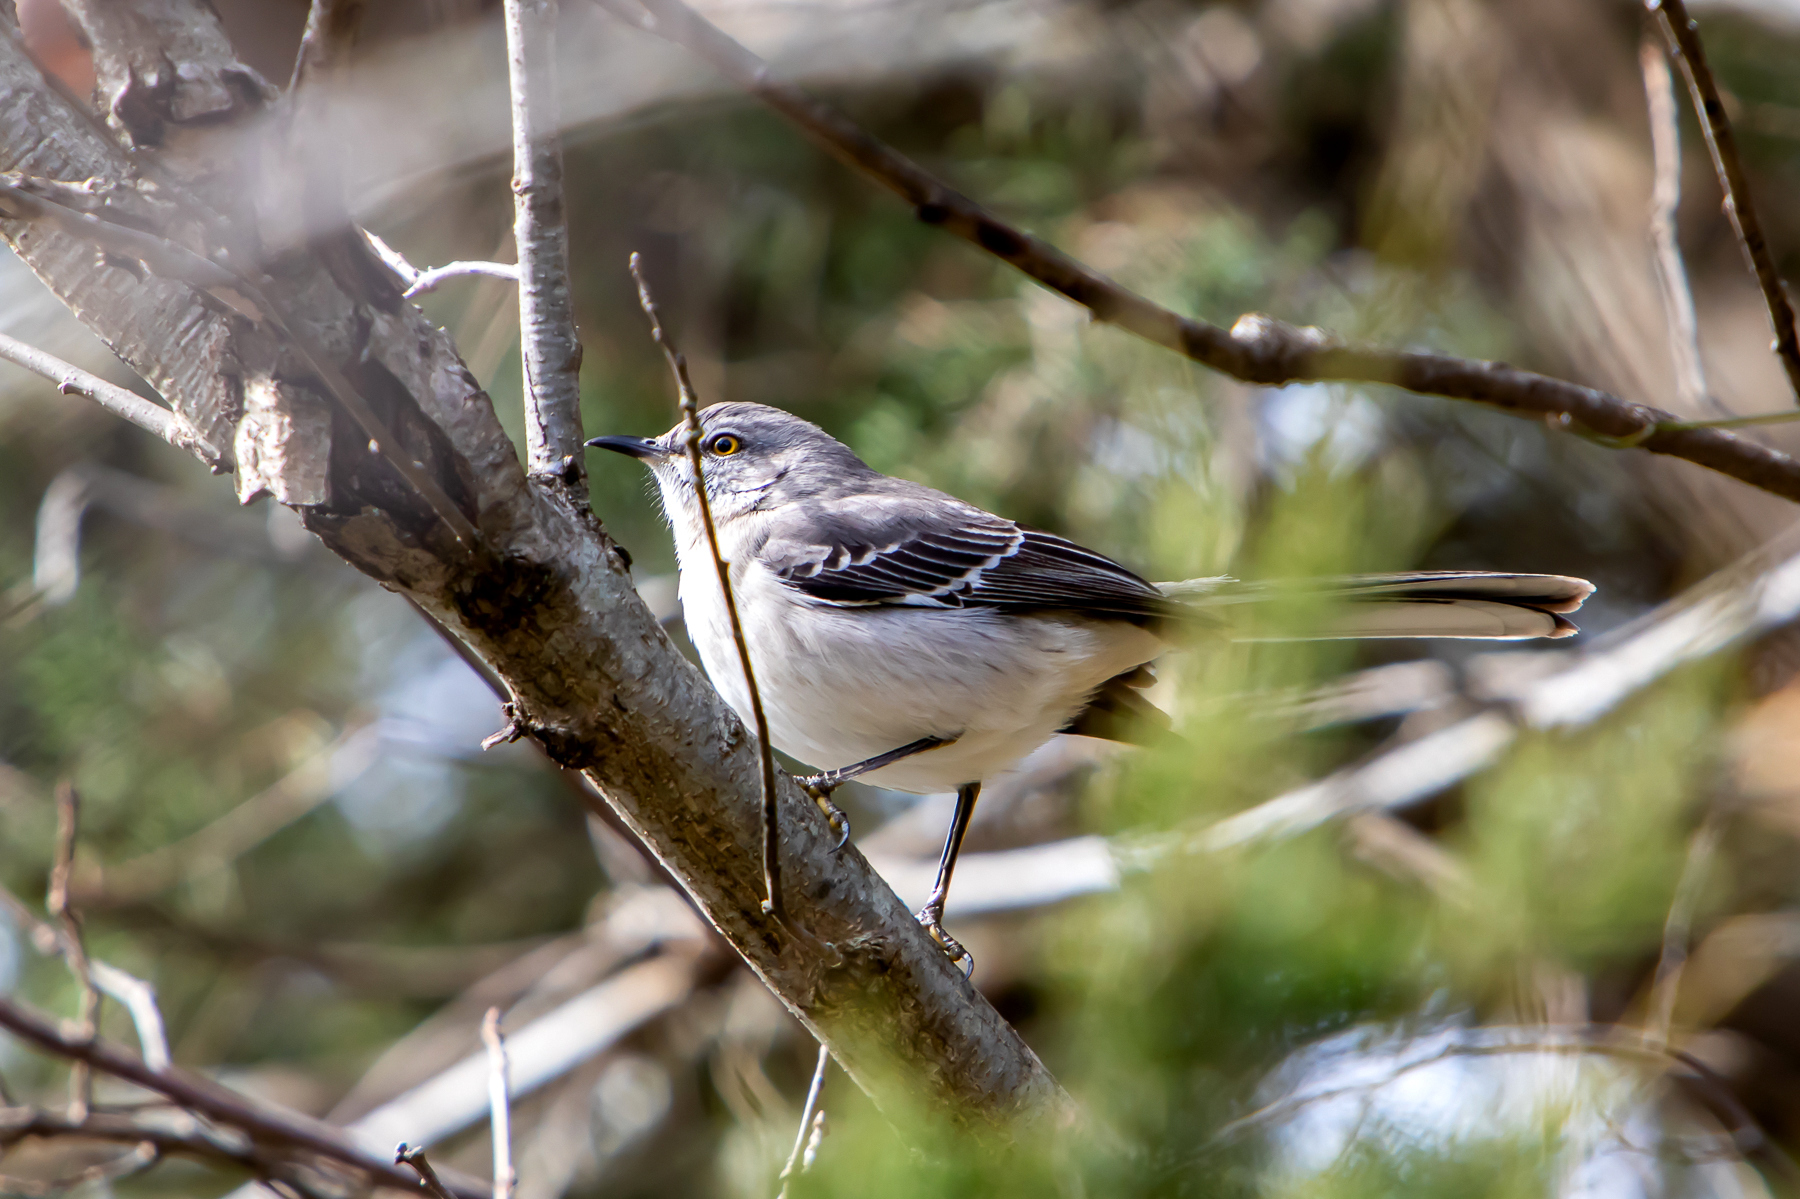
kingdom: Animalia
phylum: Chordata
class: Aves
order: Passeriformes
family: Mimidae
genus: Mimus
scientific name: Mimus polyglottos
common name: Northern mockingbird
